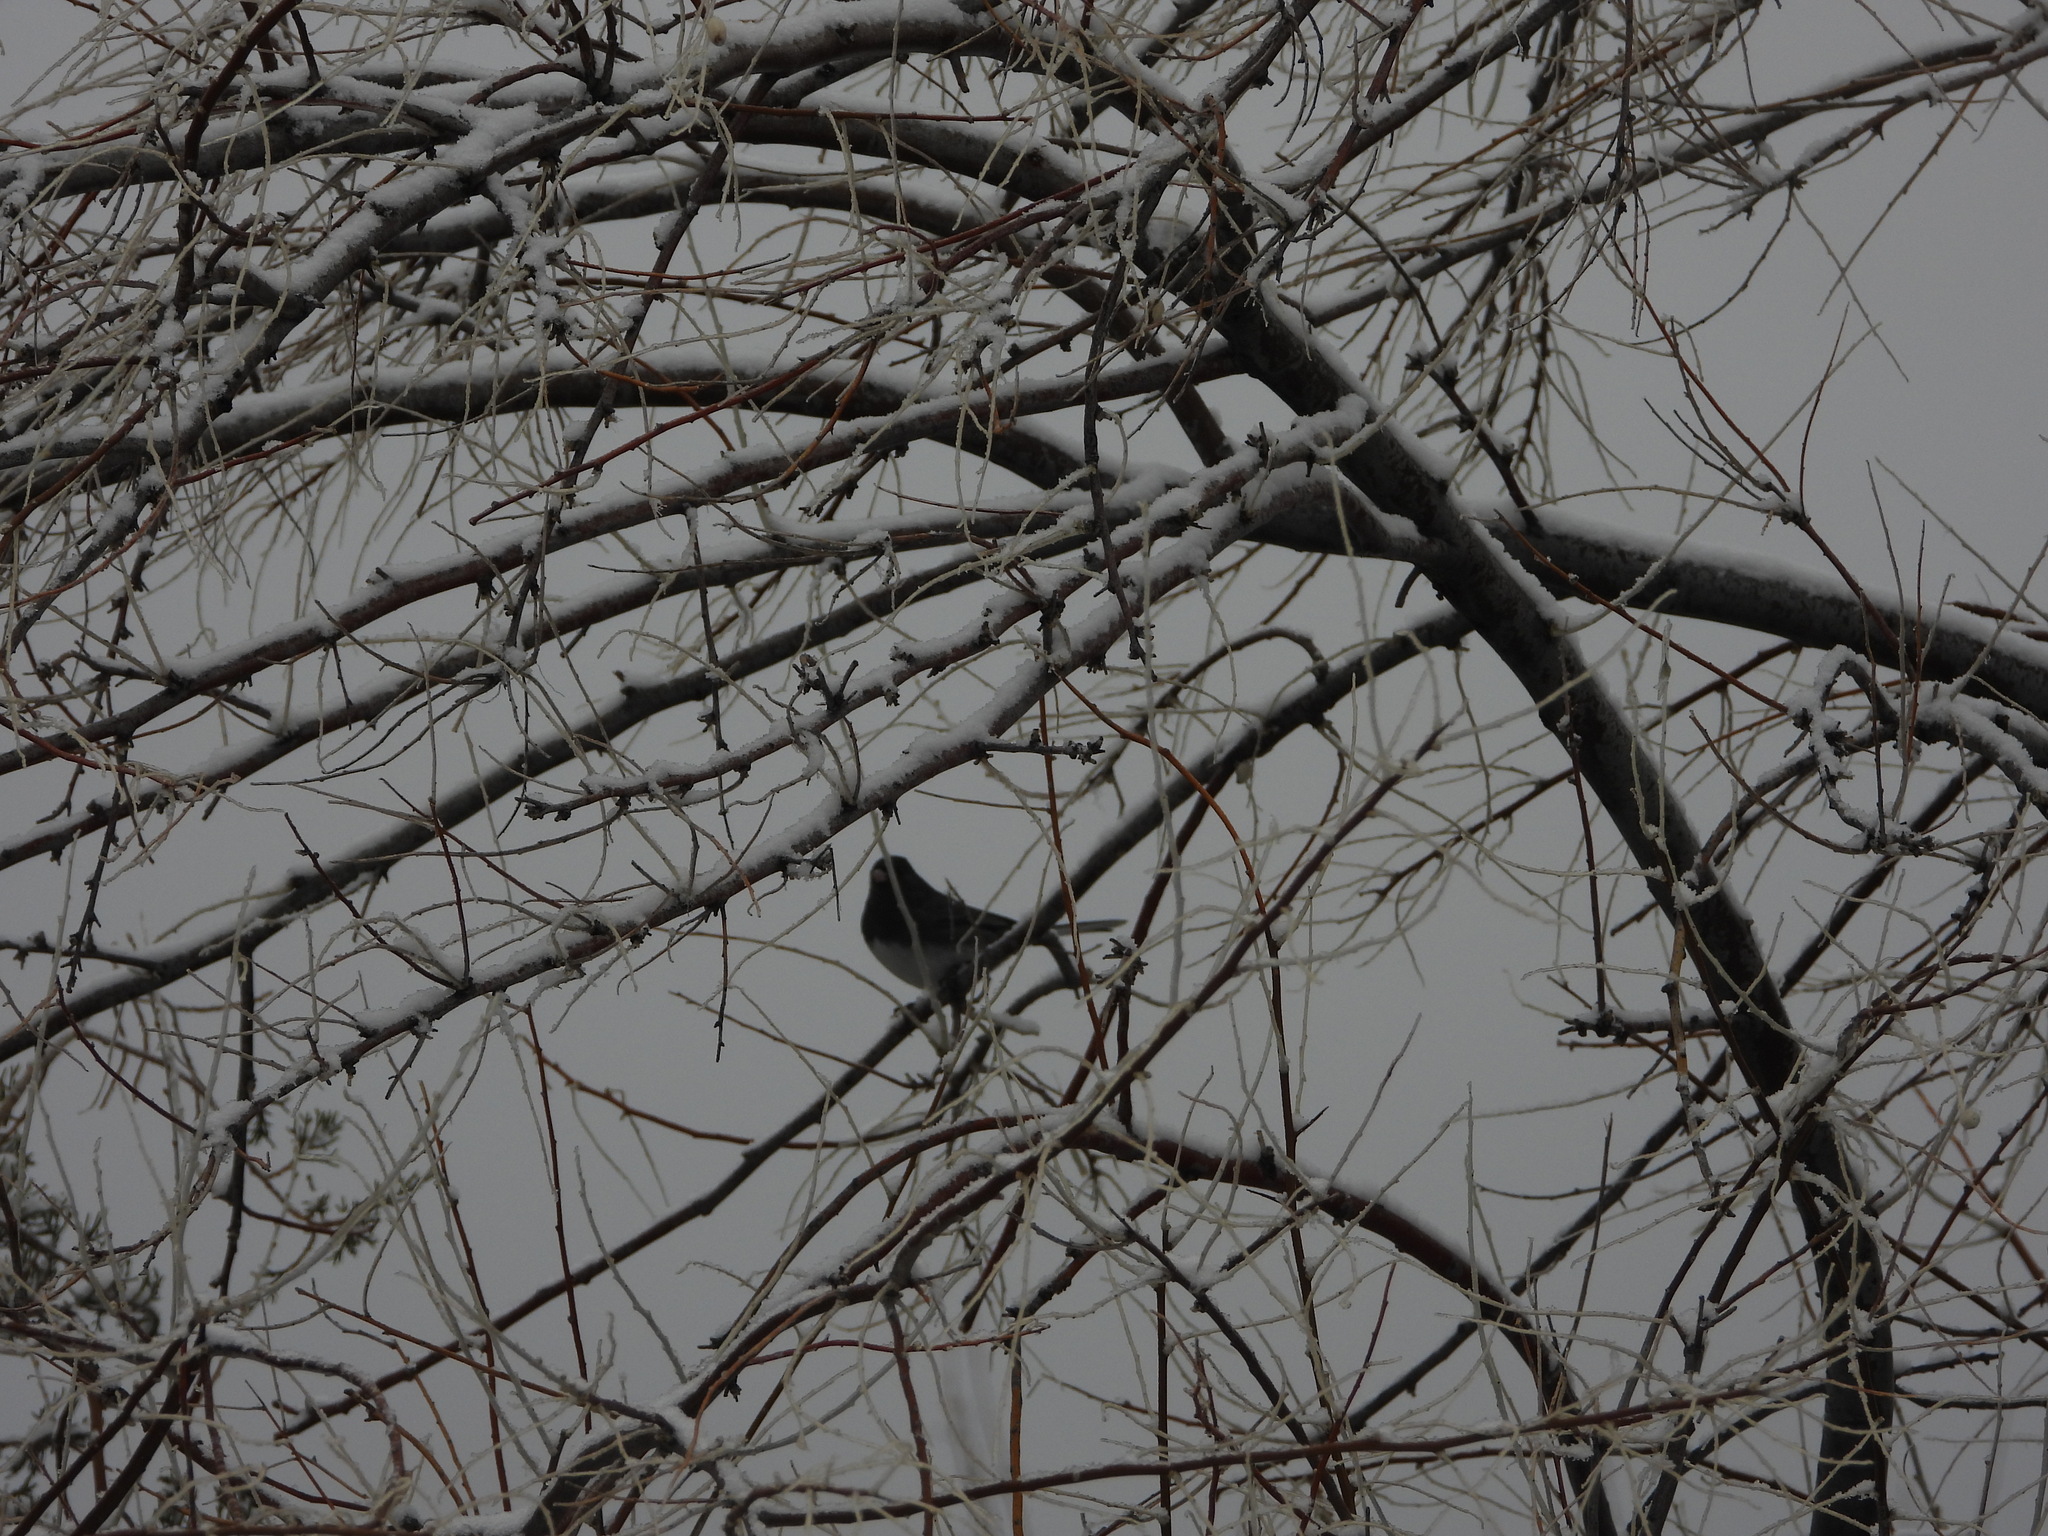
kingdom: Animalia
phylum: Chordata
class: Aves
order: Passeriformes
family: Passerellidae
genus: Junco
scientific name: Junco hyemalis
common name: Dark-eyed junco
